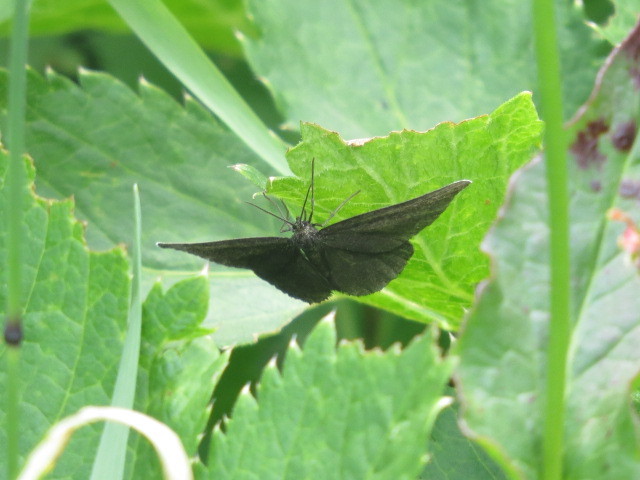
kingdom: Animalia
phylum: Arthropoda
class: Insecta
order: Lepidoptera
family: Geometridae
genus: Odezia
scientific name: Odezia atrata
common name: Chimney sweeper
